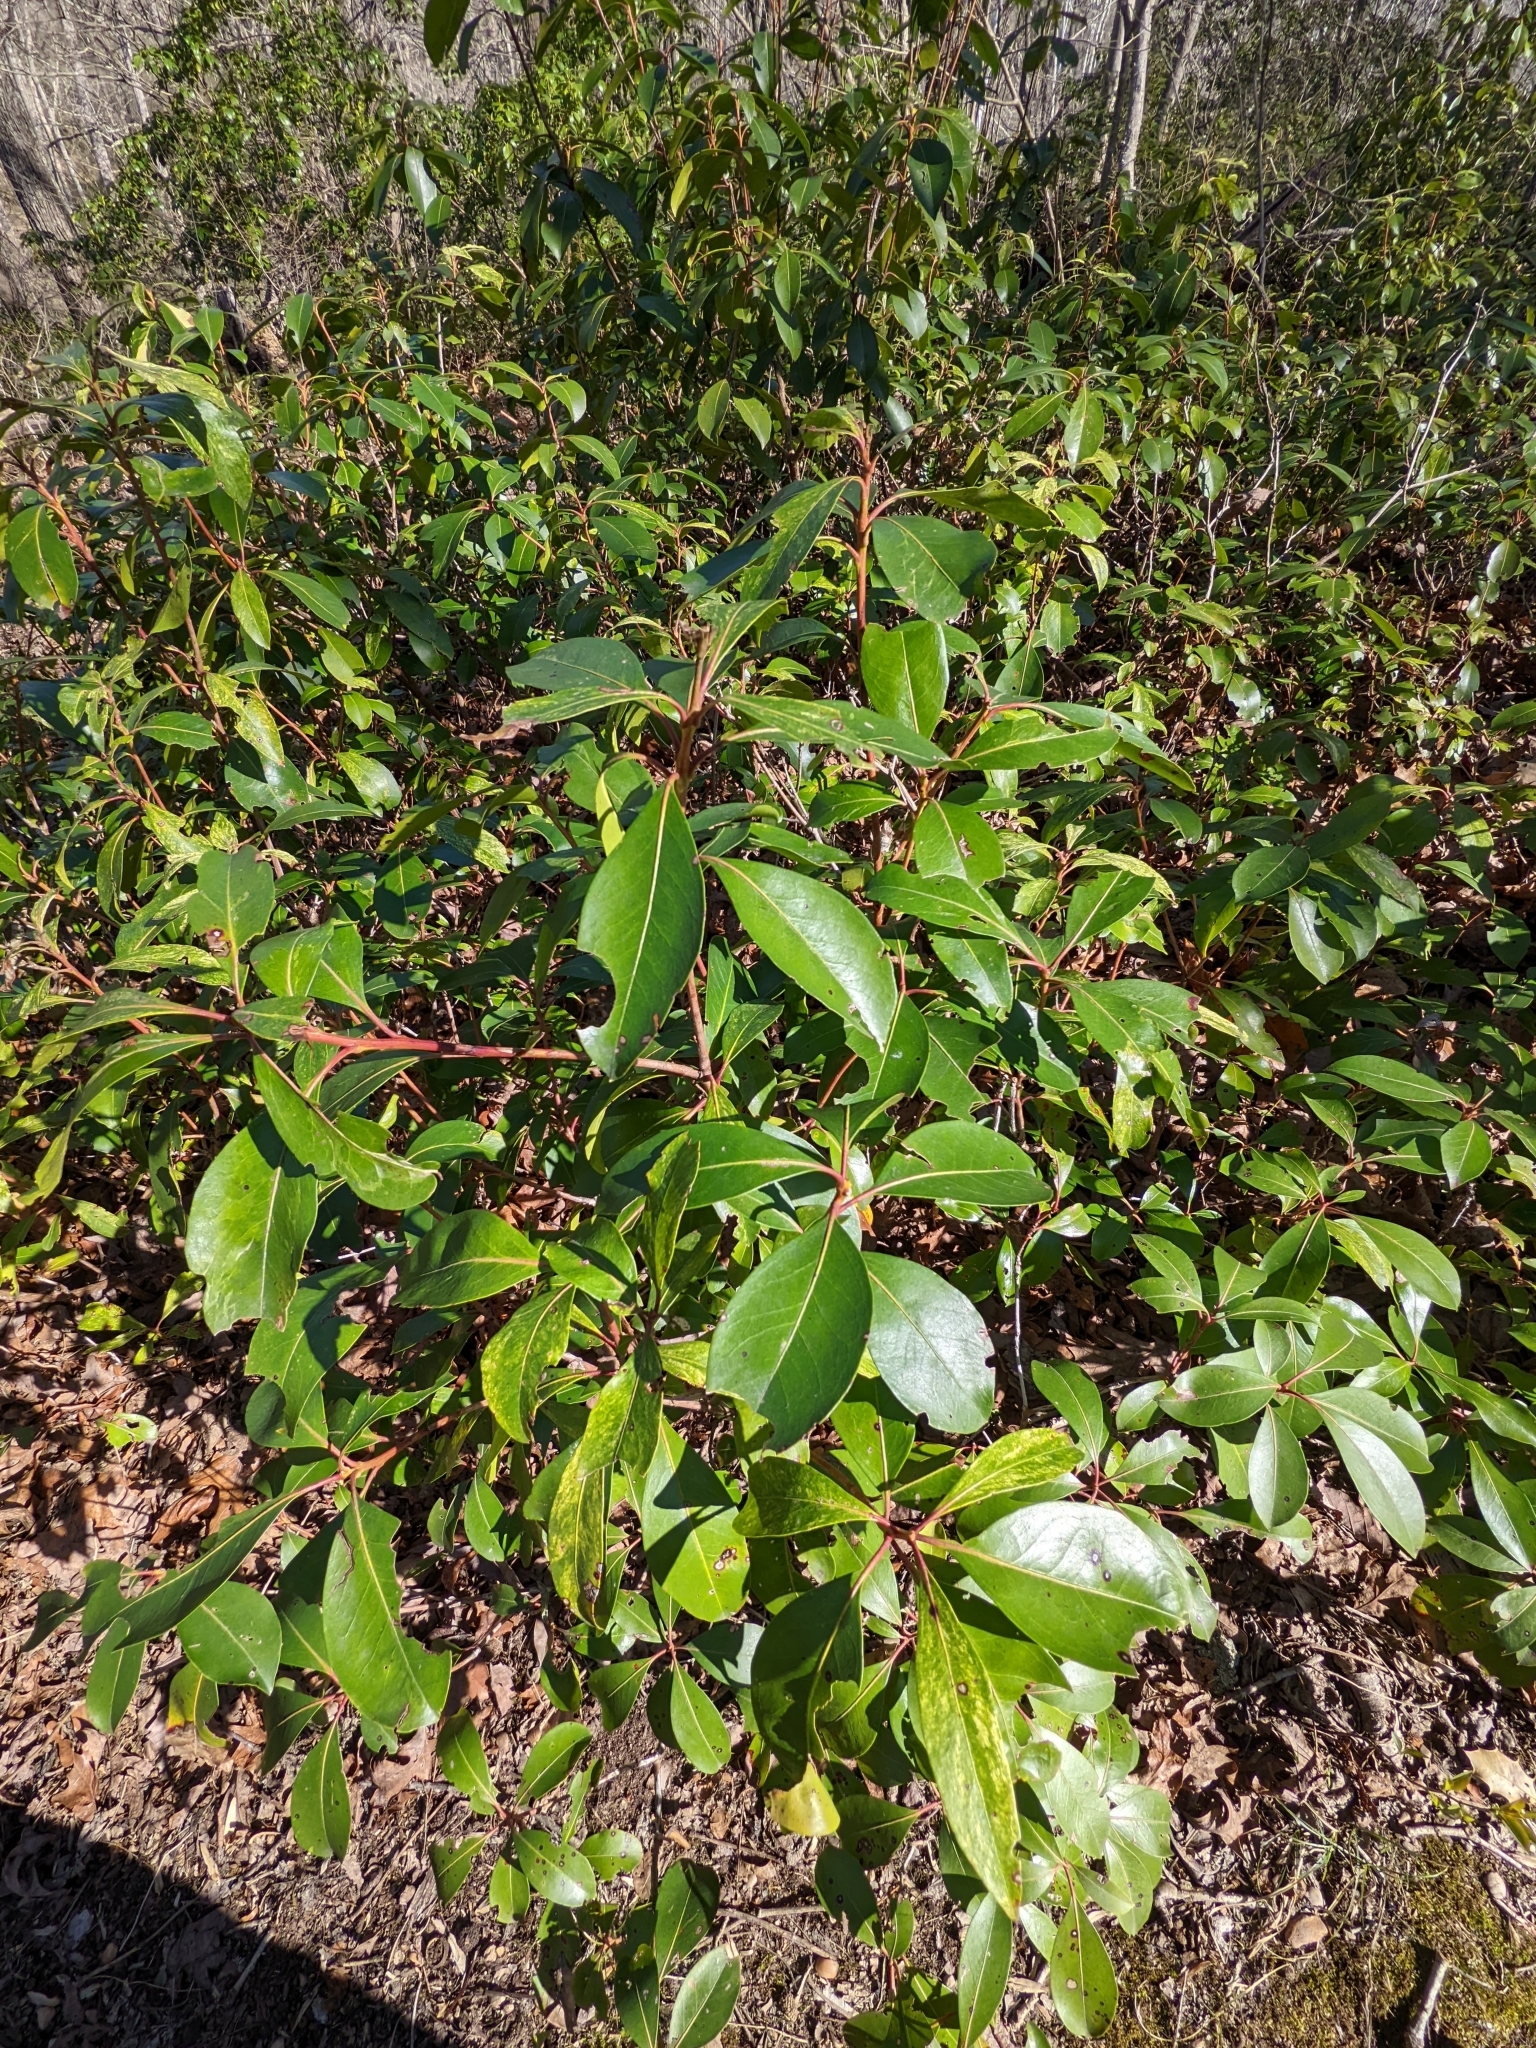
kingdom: Plantae
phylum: Tracheophyta
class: Magnoliopsida
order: Ericales
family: Ericaceae
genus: Kalmia
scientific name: Kalmia latifolia
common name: Mountain-laurel
